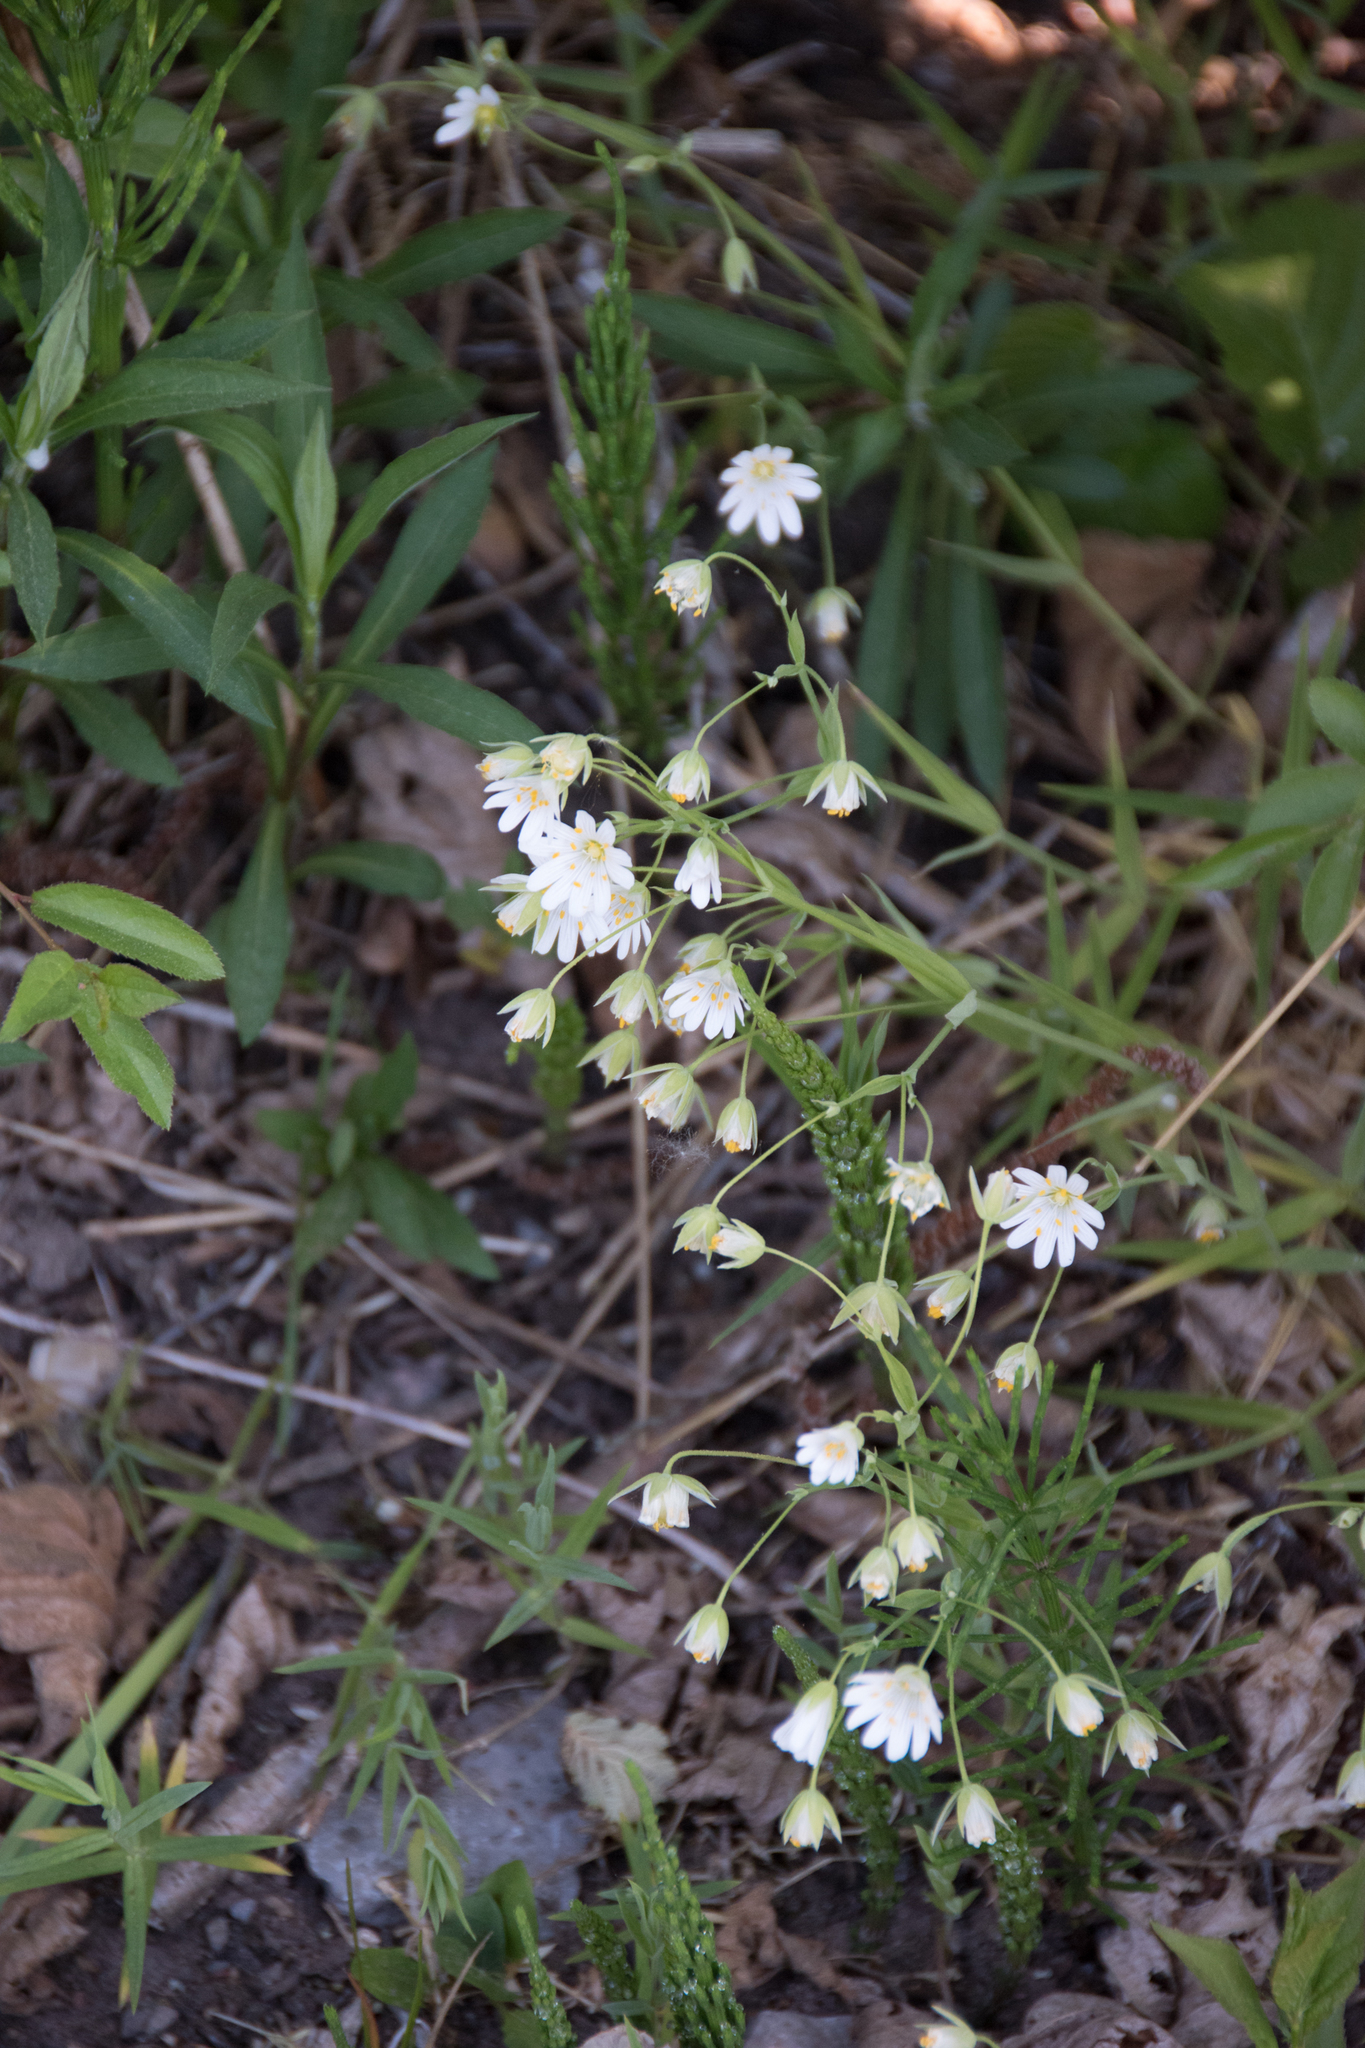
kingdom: Plantae
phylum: Tracheophyta
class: Magnoliopsida
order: Caryophyllales
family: Caryophyllaceae
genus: Rabelera
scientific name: Rabelera holostea
